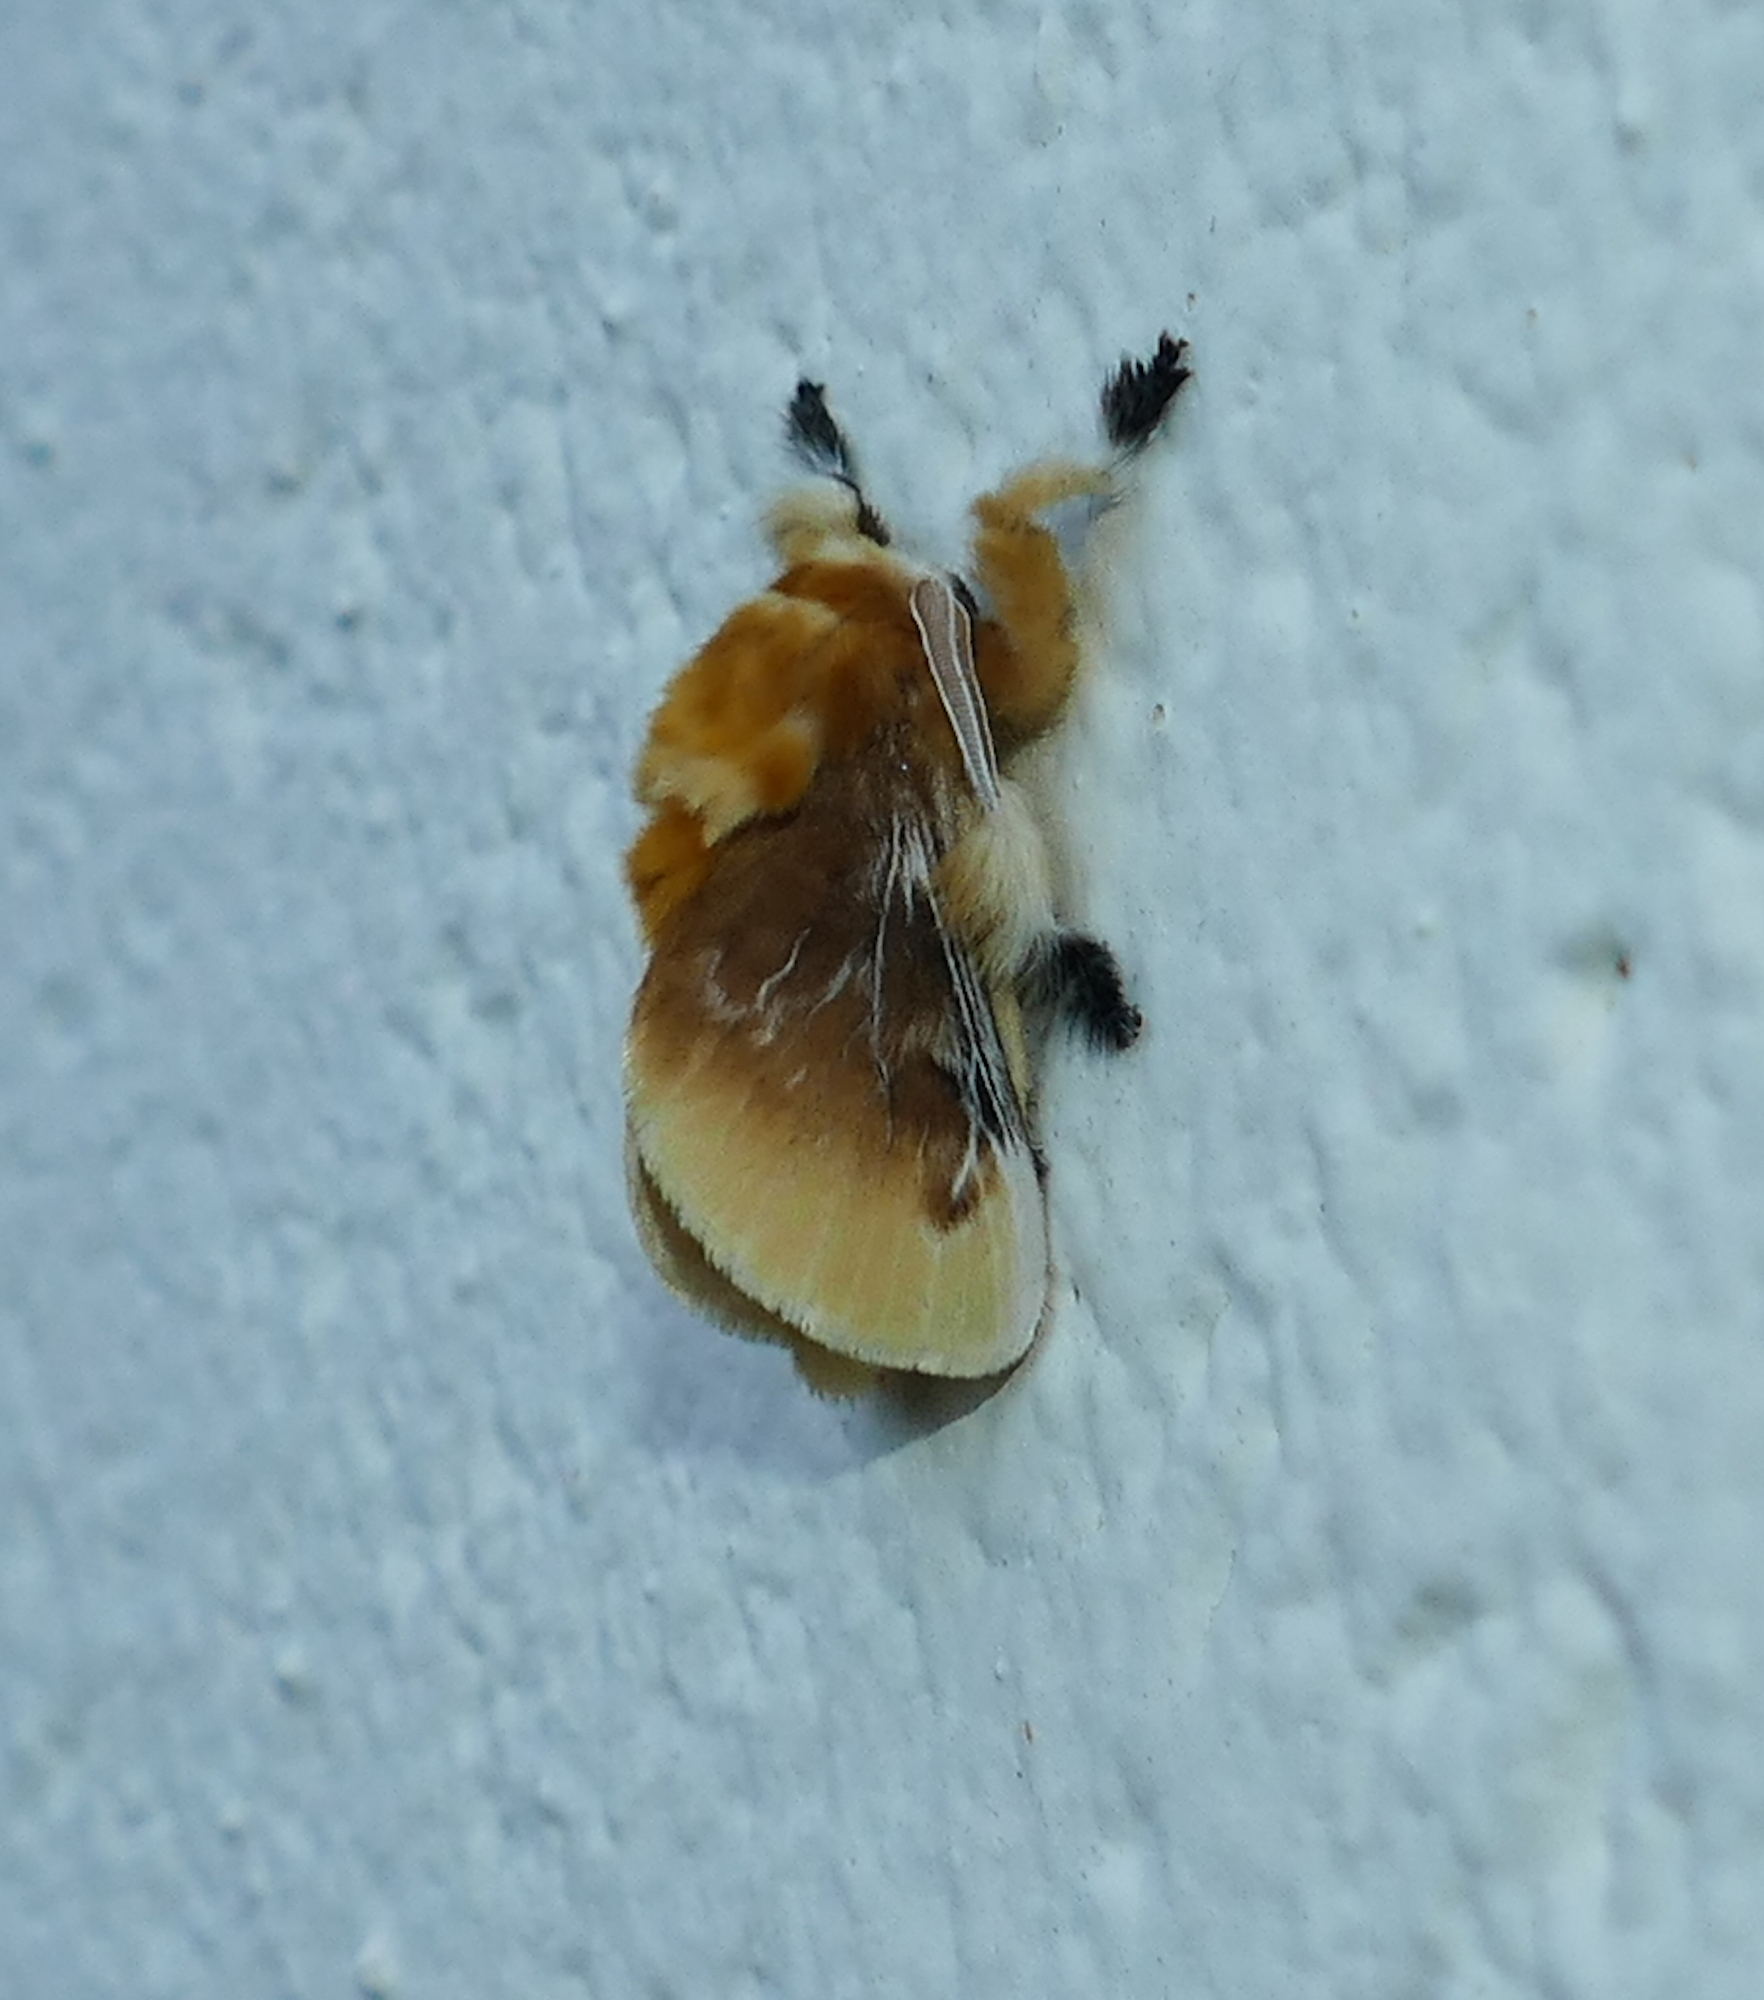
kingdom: Animalia
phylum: Arthropoda
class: Insecta
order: Lepidoptera
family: Megalopygidae
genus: Megalopyge
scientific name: Megalopyge opercularis
